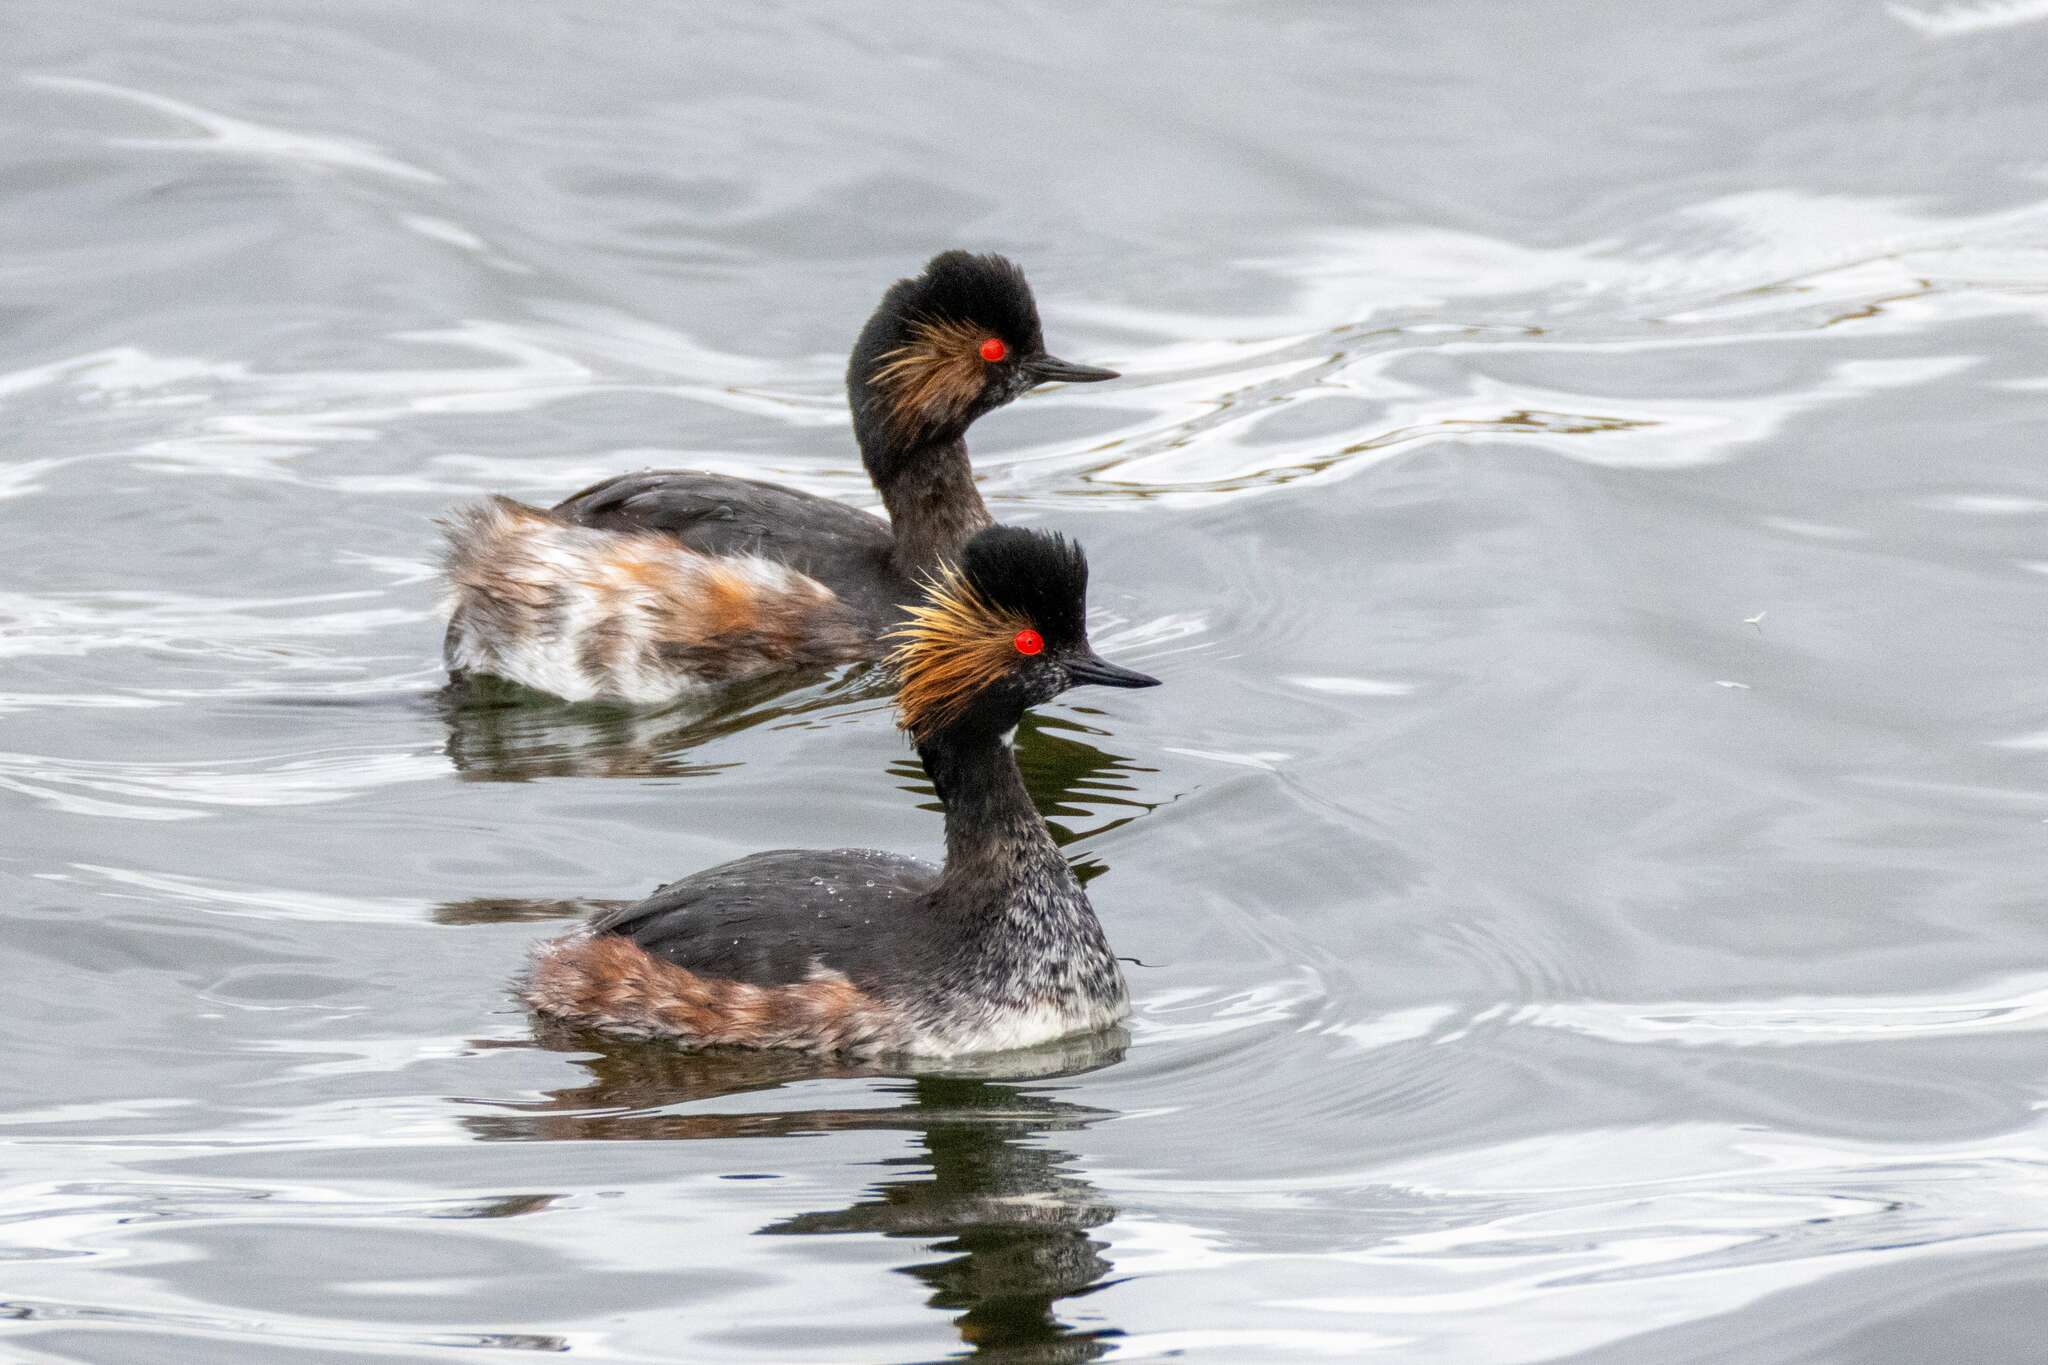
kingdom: Animalia
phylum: Chordata
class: Aves
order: Podicipediformes
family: Podicipedidae
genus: Podiceps
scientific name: Podiceps nigricollis
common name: Black-necked grebe
